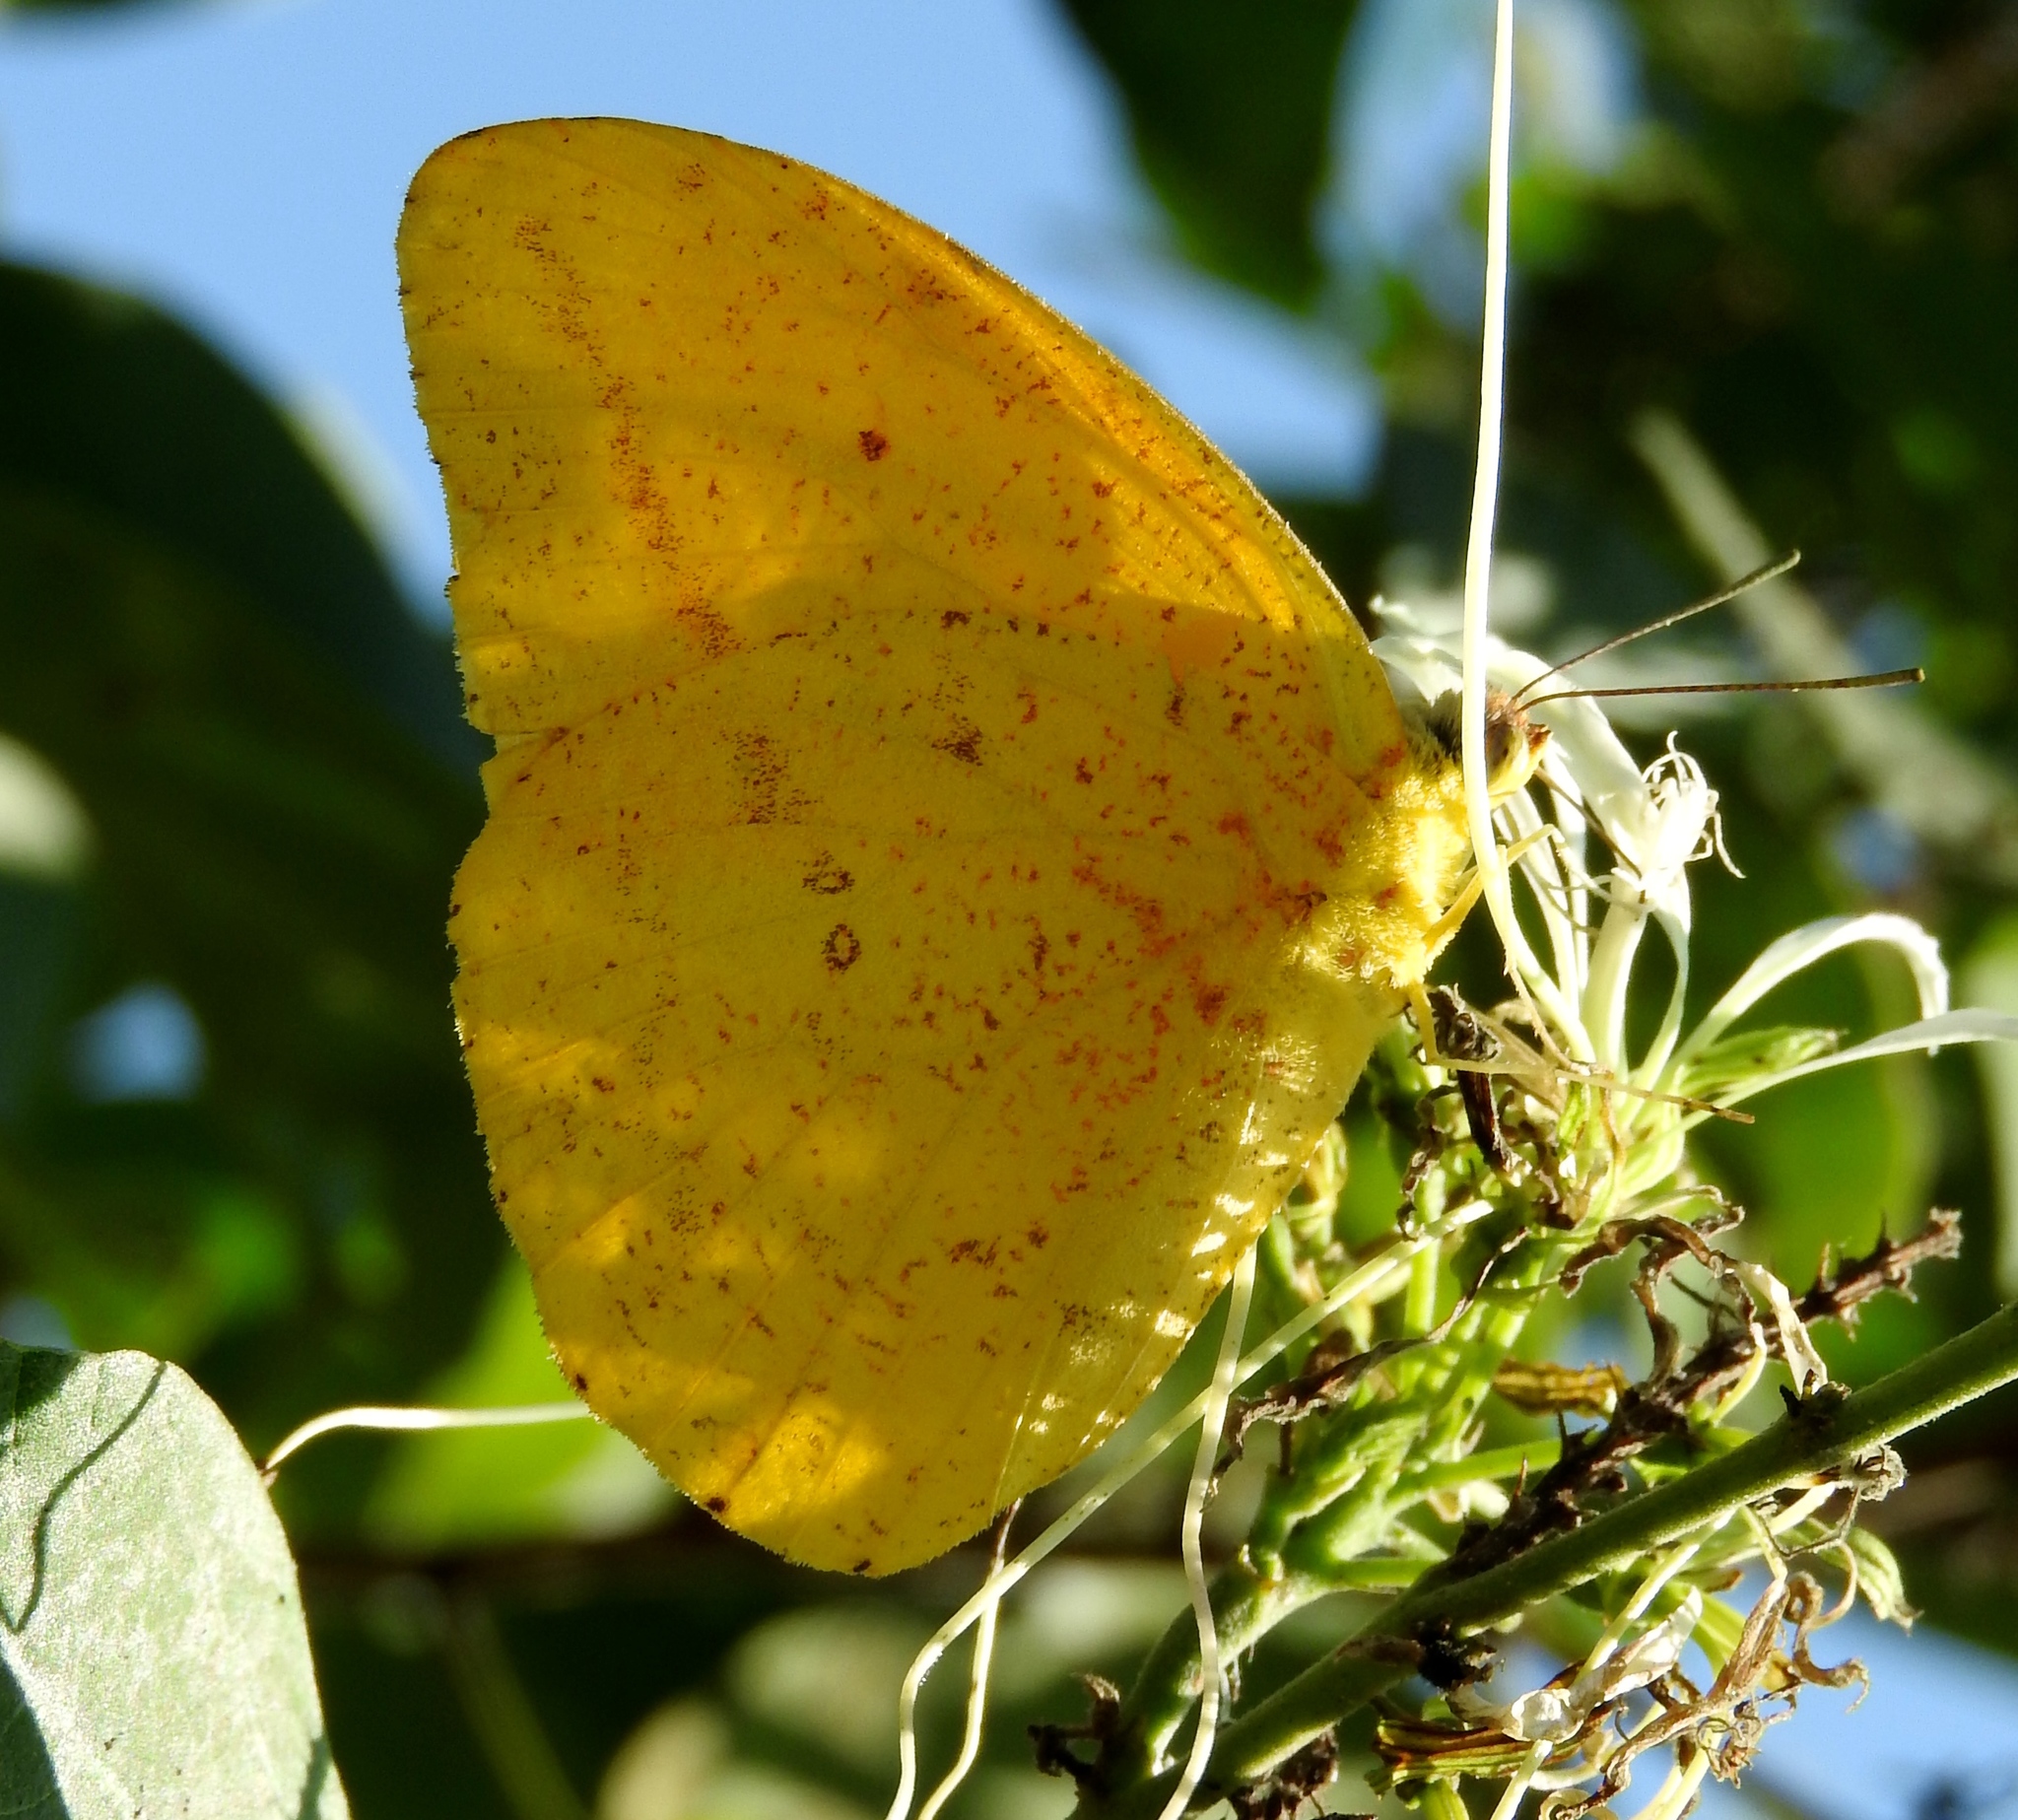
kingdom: Animalia
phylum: Arthropoda
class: Insecta
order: Lepidoptera
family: Pieridae
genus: Phoebis
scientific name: Phoebis agarithe
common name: Large orange sulphur
